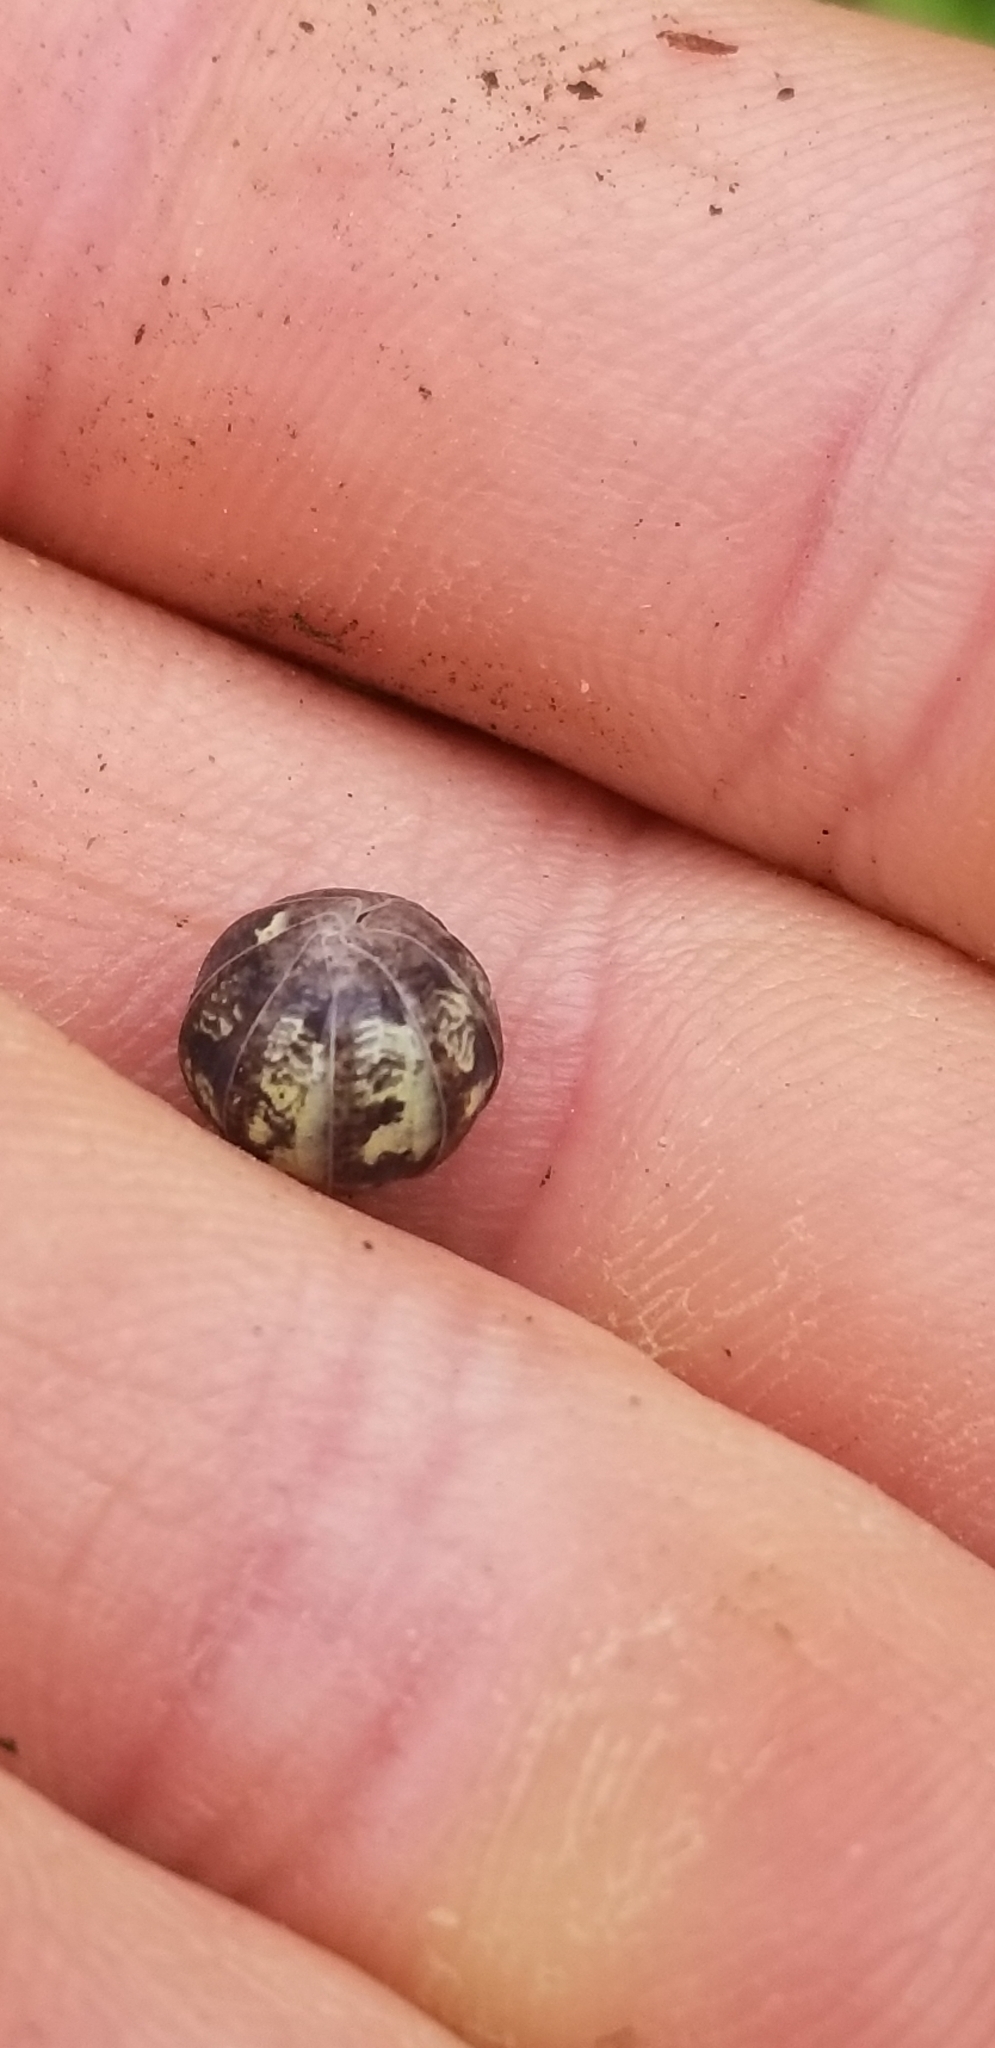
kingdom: Animalia
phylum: Arthropoda
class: Malacostraca
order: Isopoda
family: Armadillidiidae
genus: Armadillidium
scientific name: Armadillidium vulgare
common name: Common pill woodlouse
